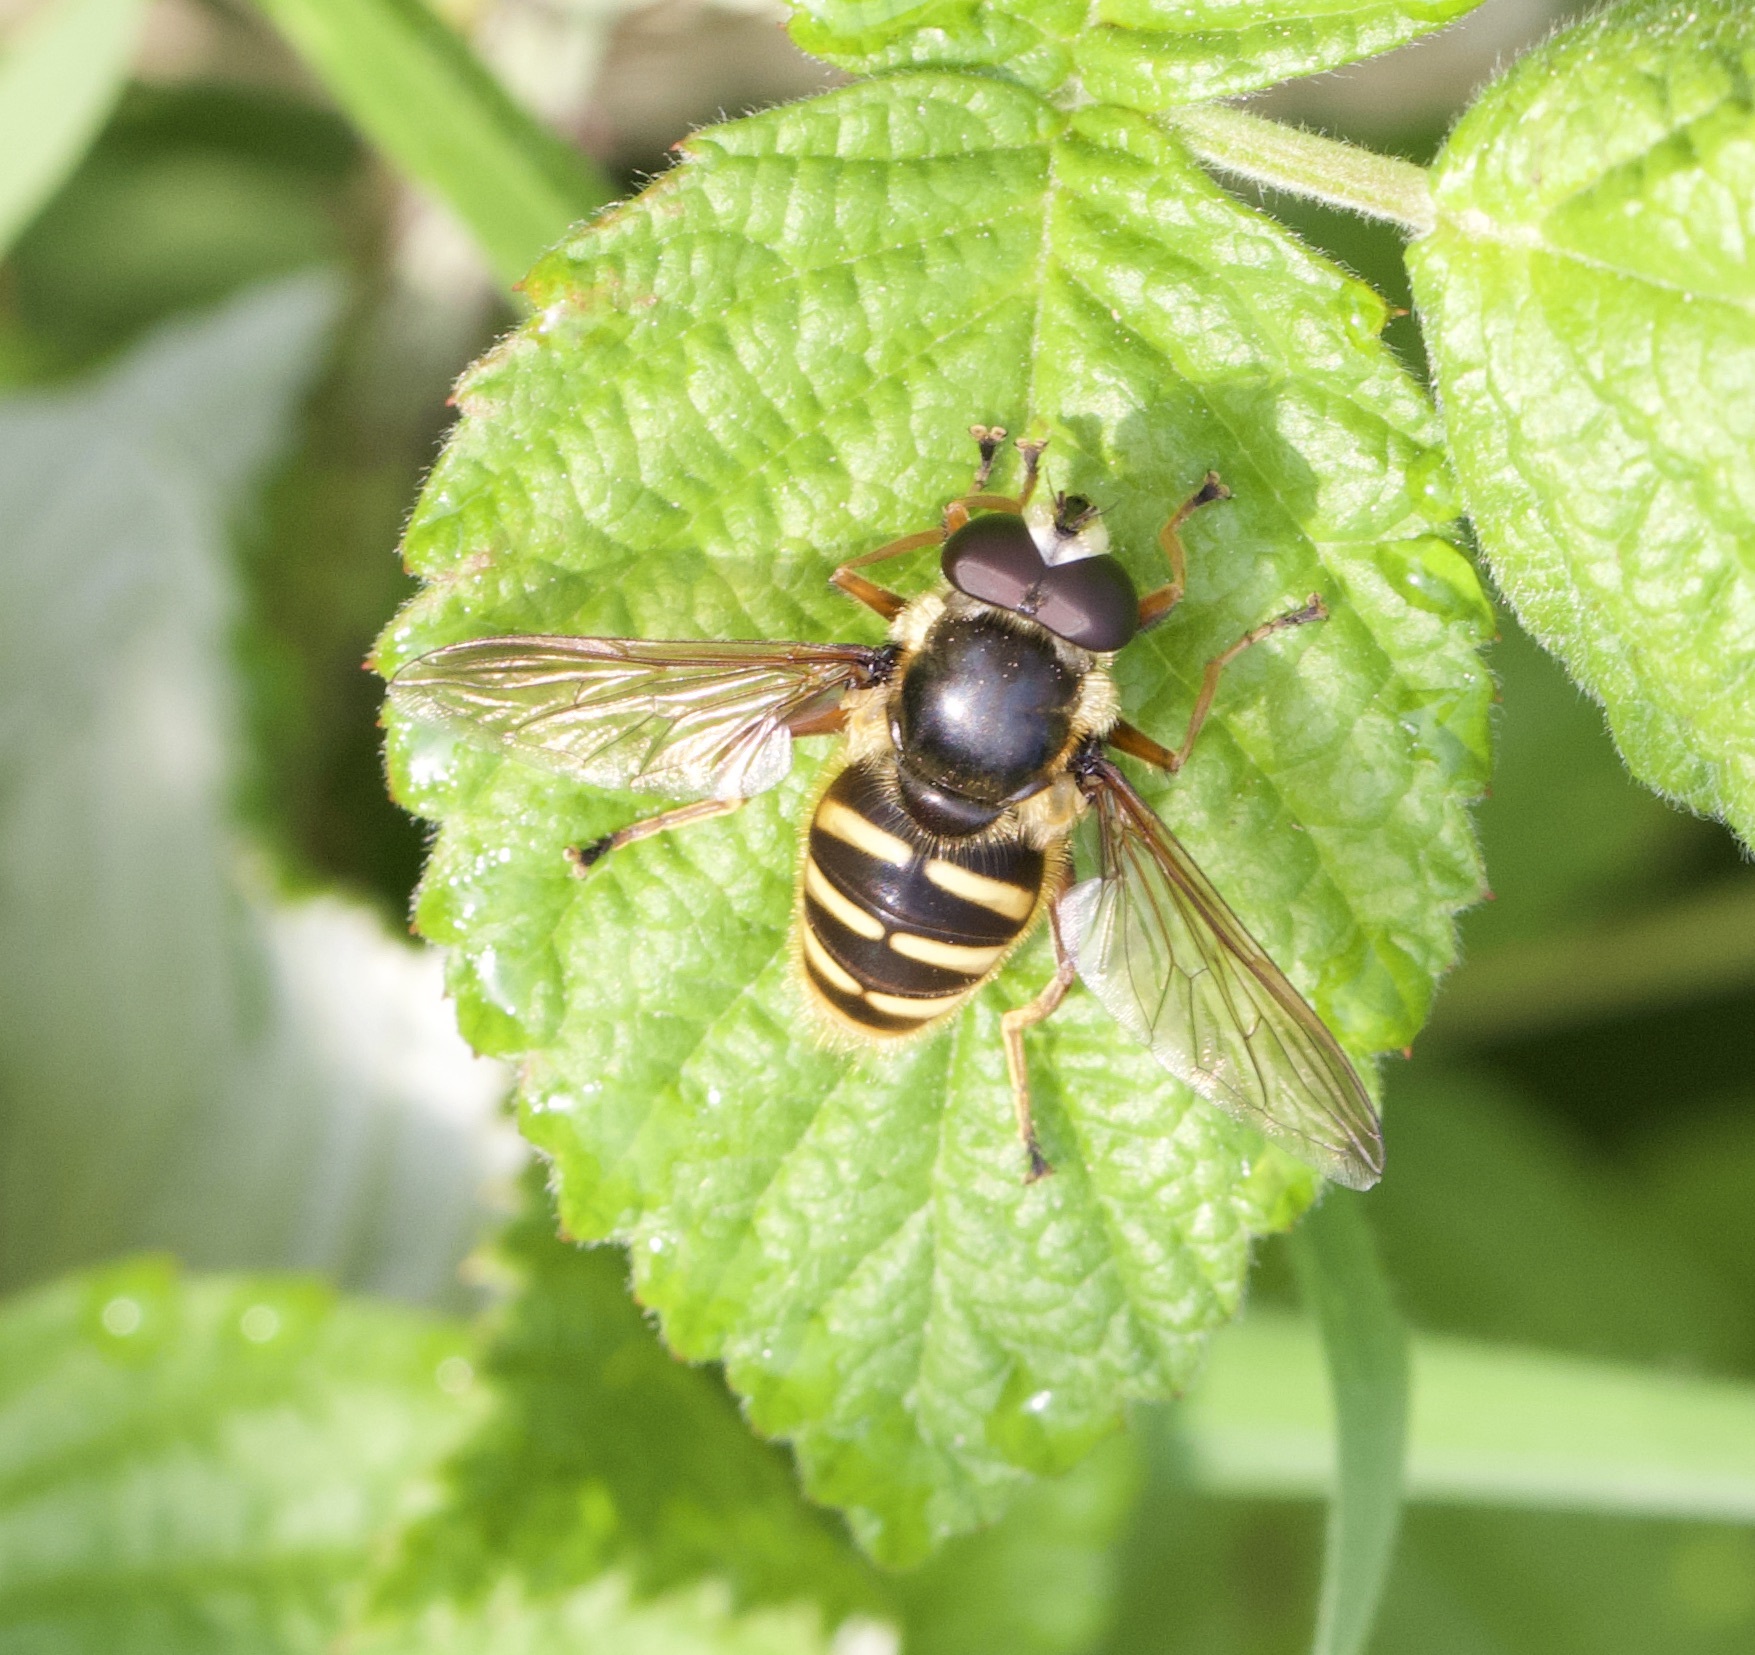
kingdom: Animalia
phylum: Arthropoda
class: Insecta
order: Diptera
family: Syrphidae
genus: Sericomyia
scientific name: Sericomyia silentis
